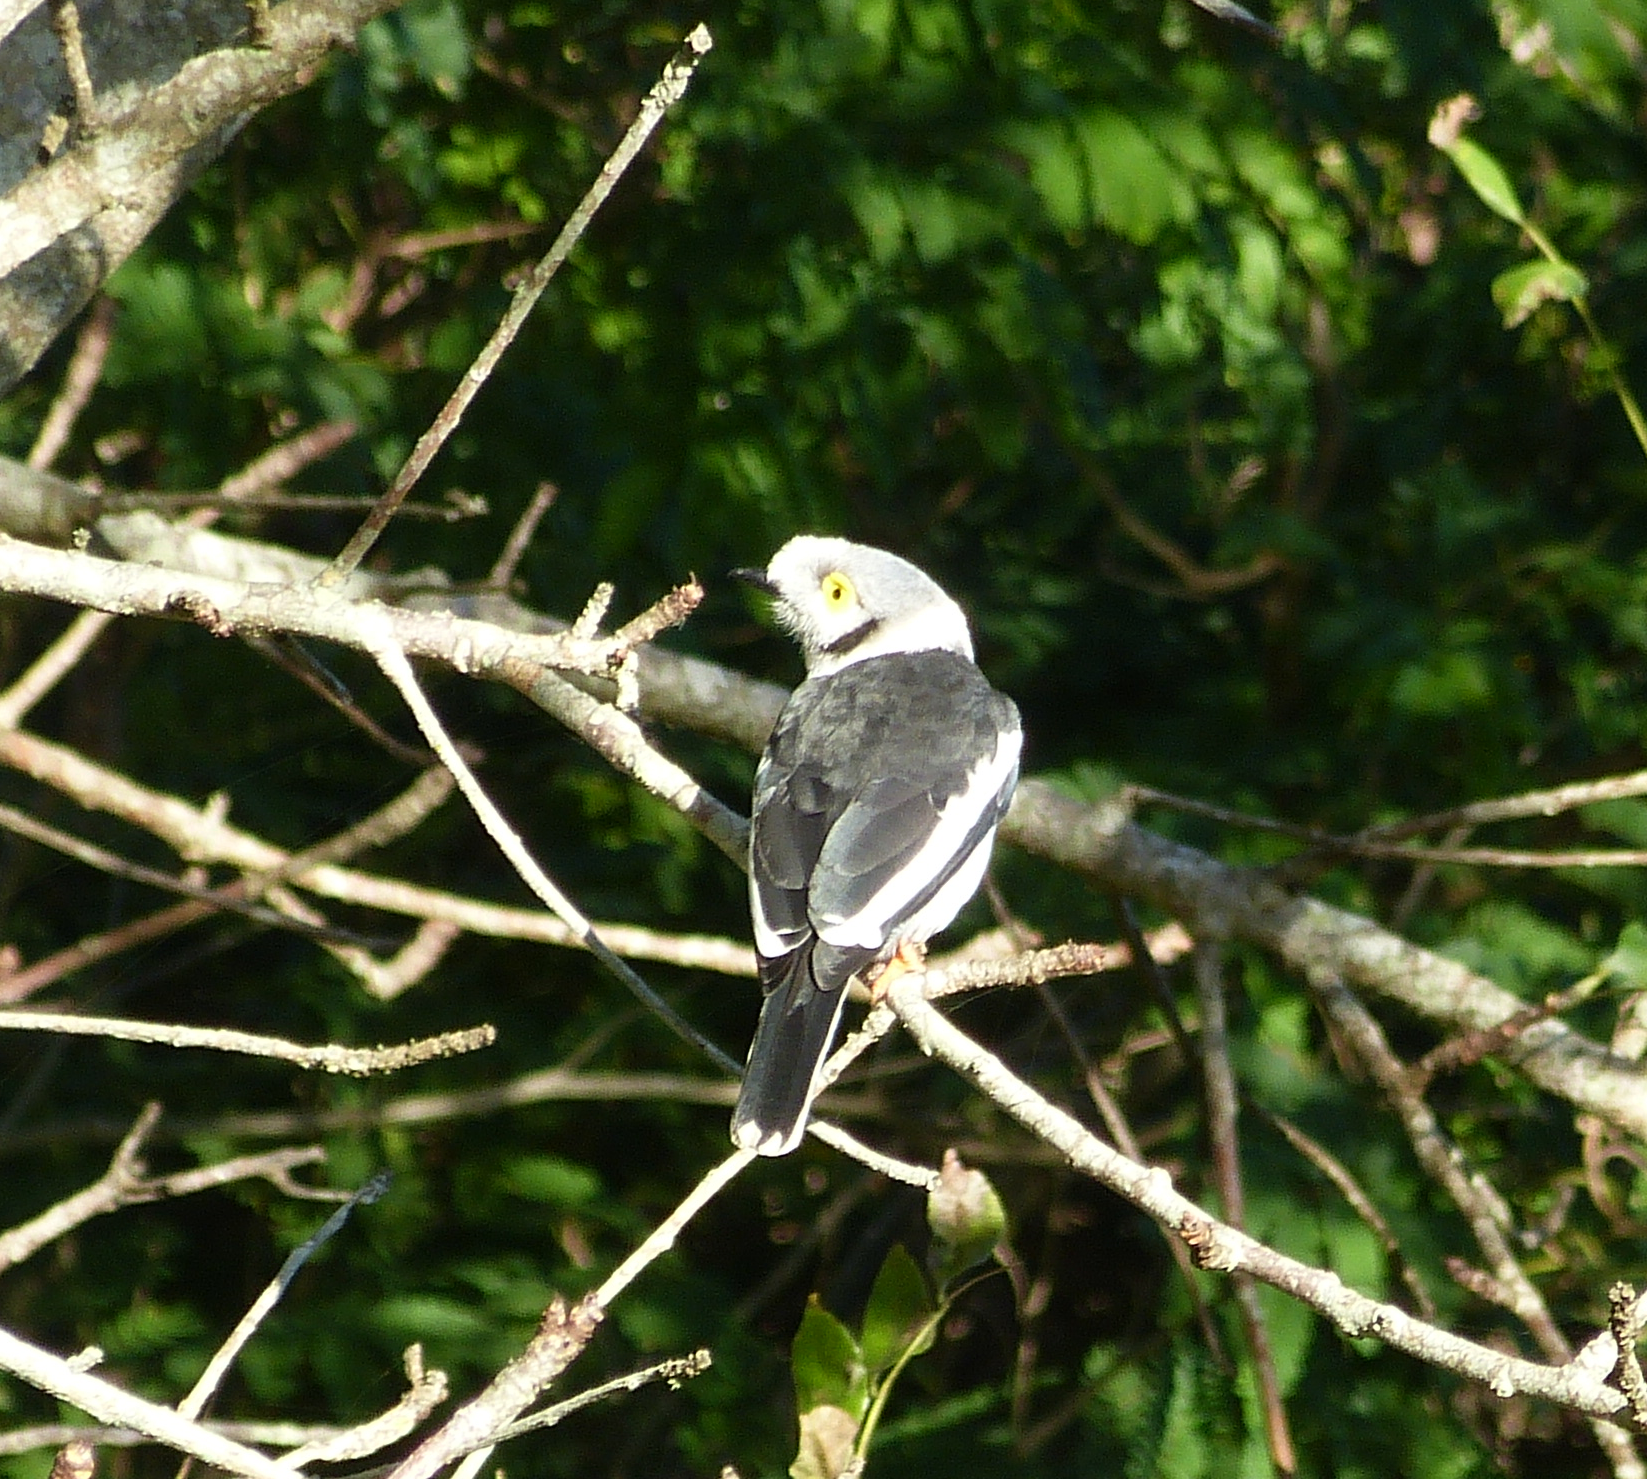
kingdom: Animalia
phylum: Chordata
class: Aves
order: Passeriformes
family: Prionopidae
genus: Prionops
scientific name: Prionops plumatus
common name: White-crested helmetshrike
